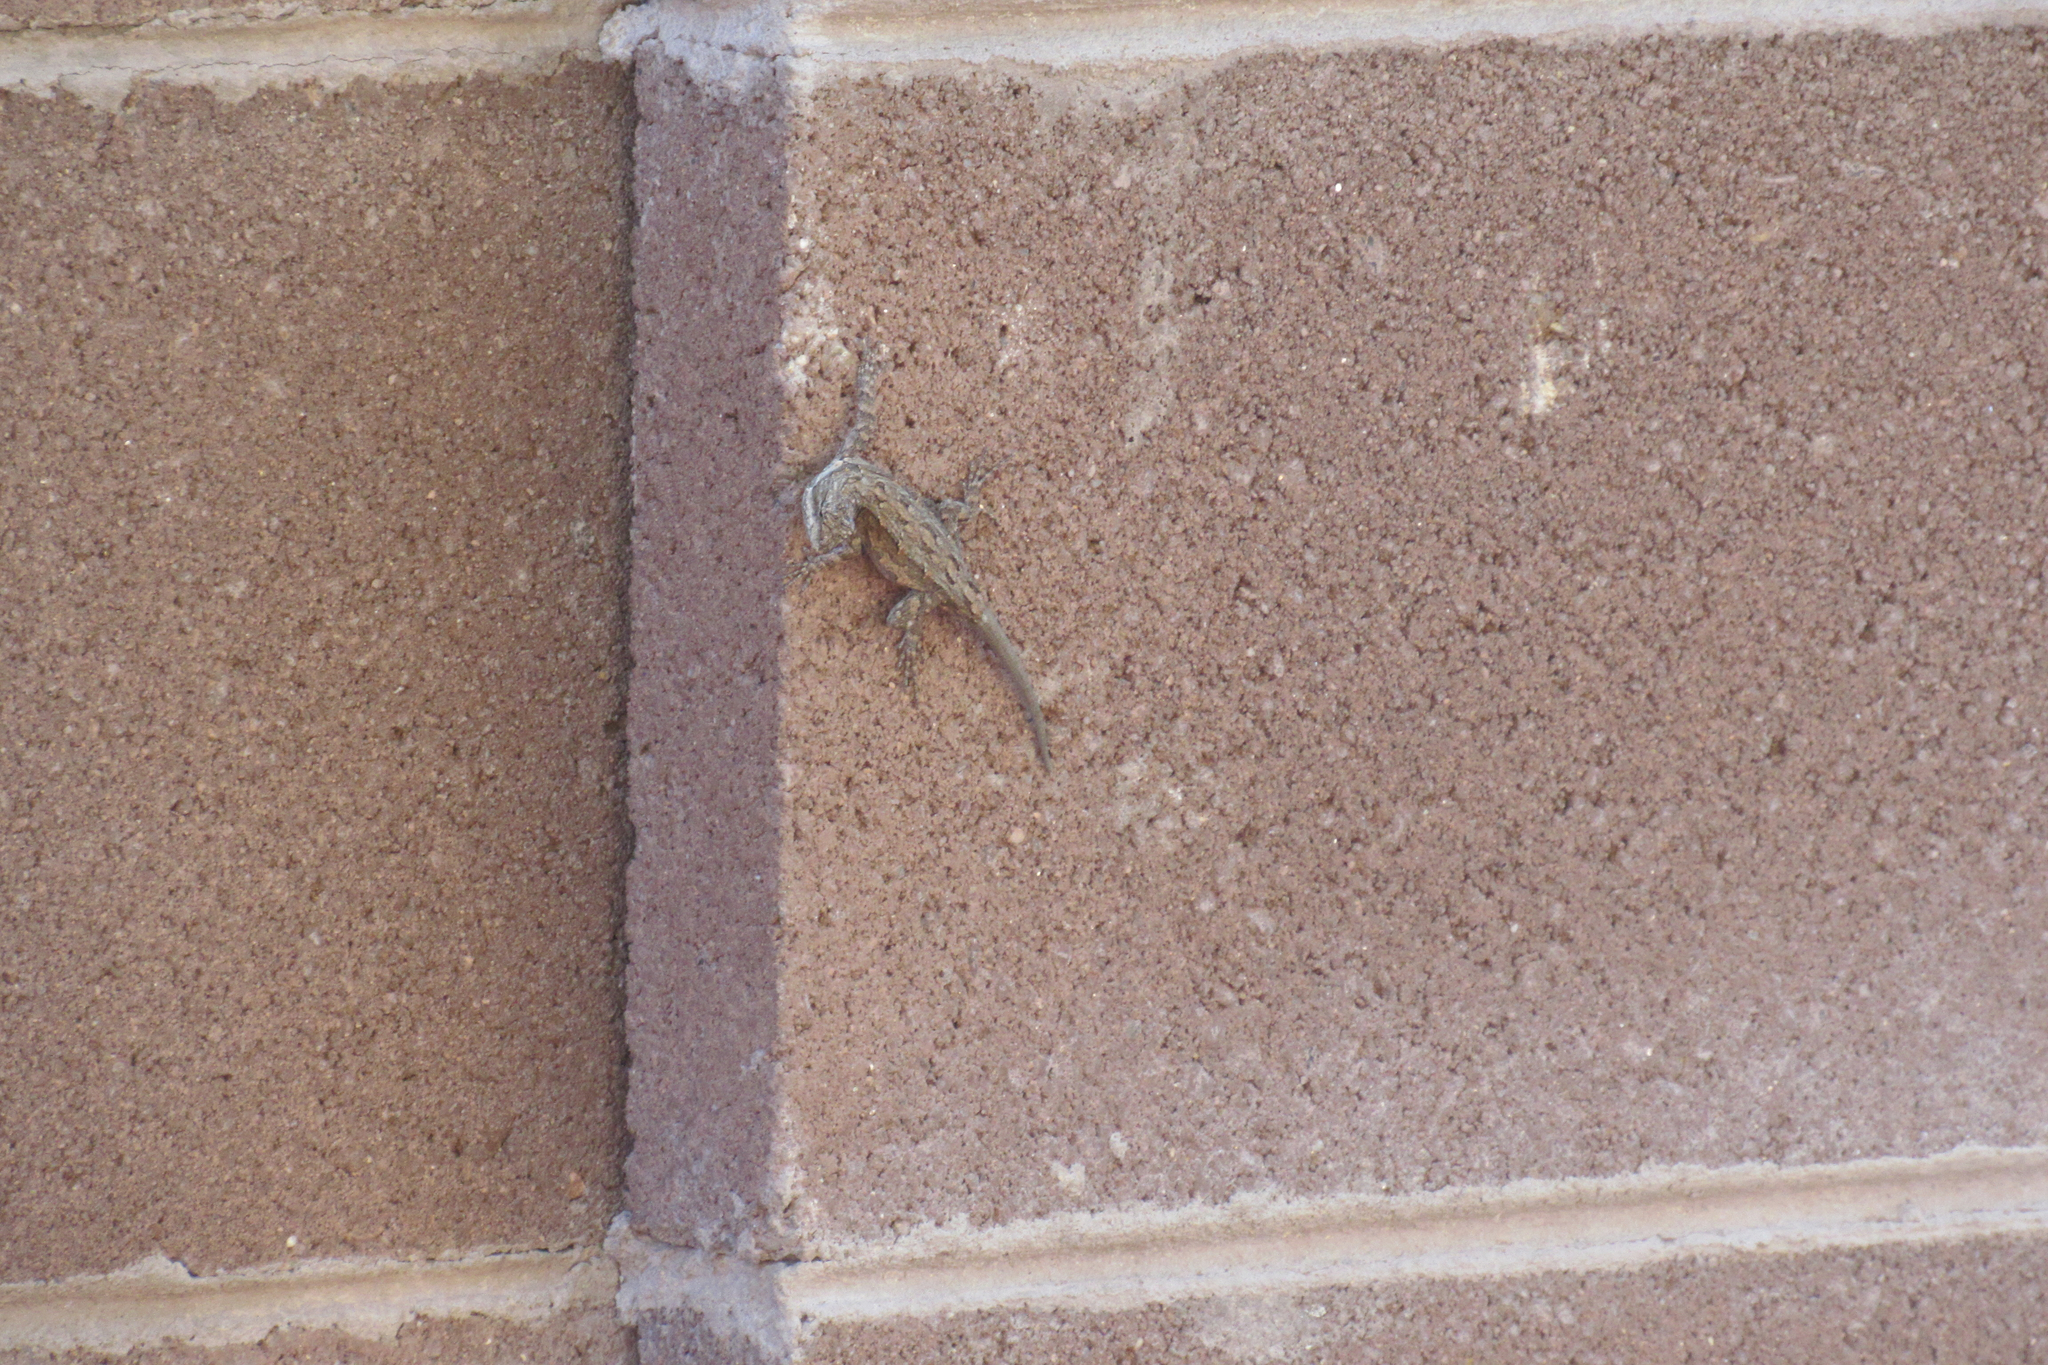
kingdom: Animalia
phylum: Chordata
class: Squamata
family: Phrynosomatidae
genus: Urosaurus
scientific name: Urosaurus ornatus
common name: Ornate tree lizard
